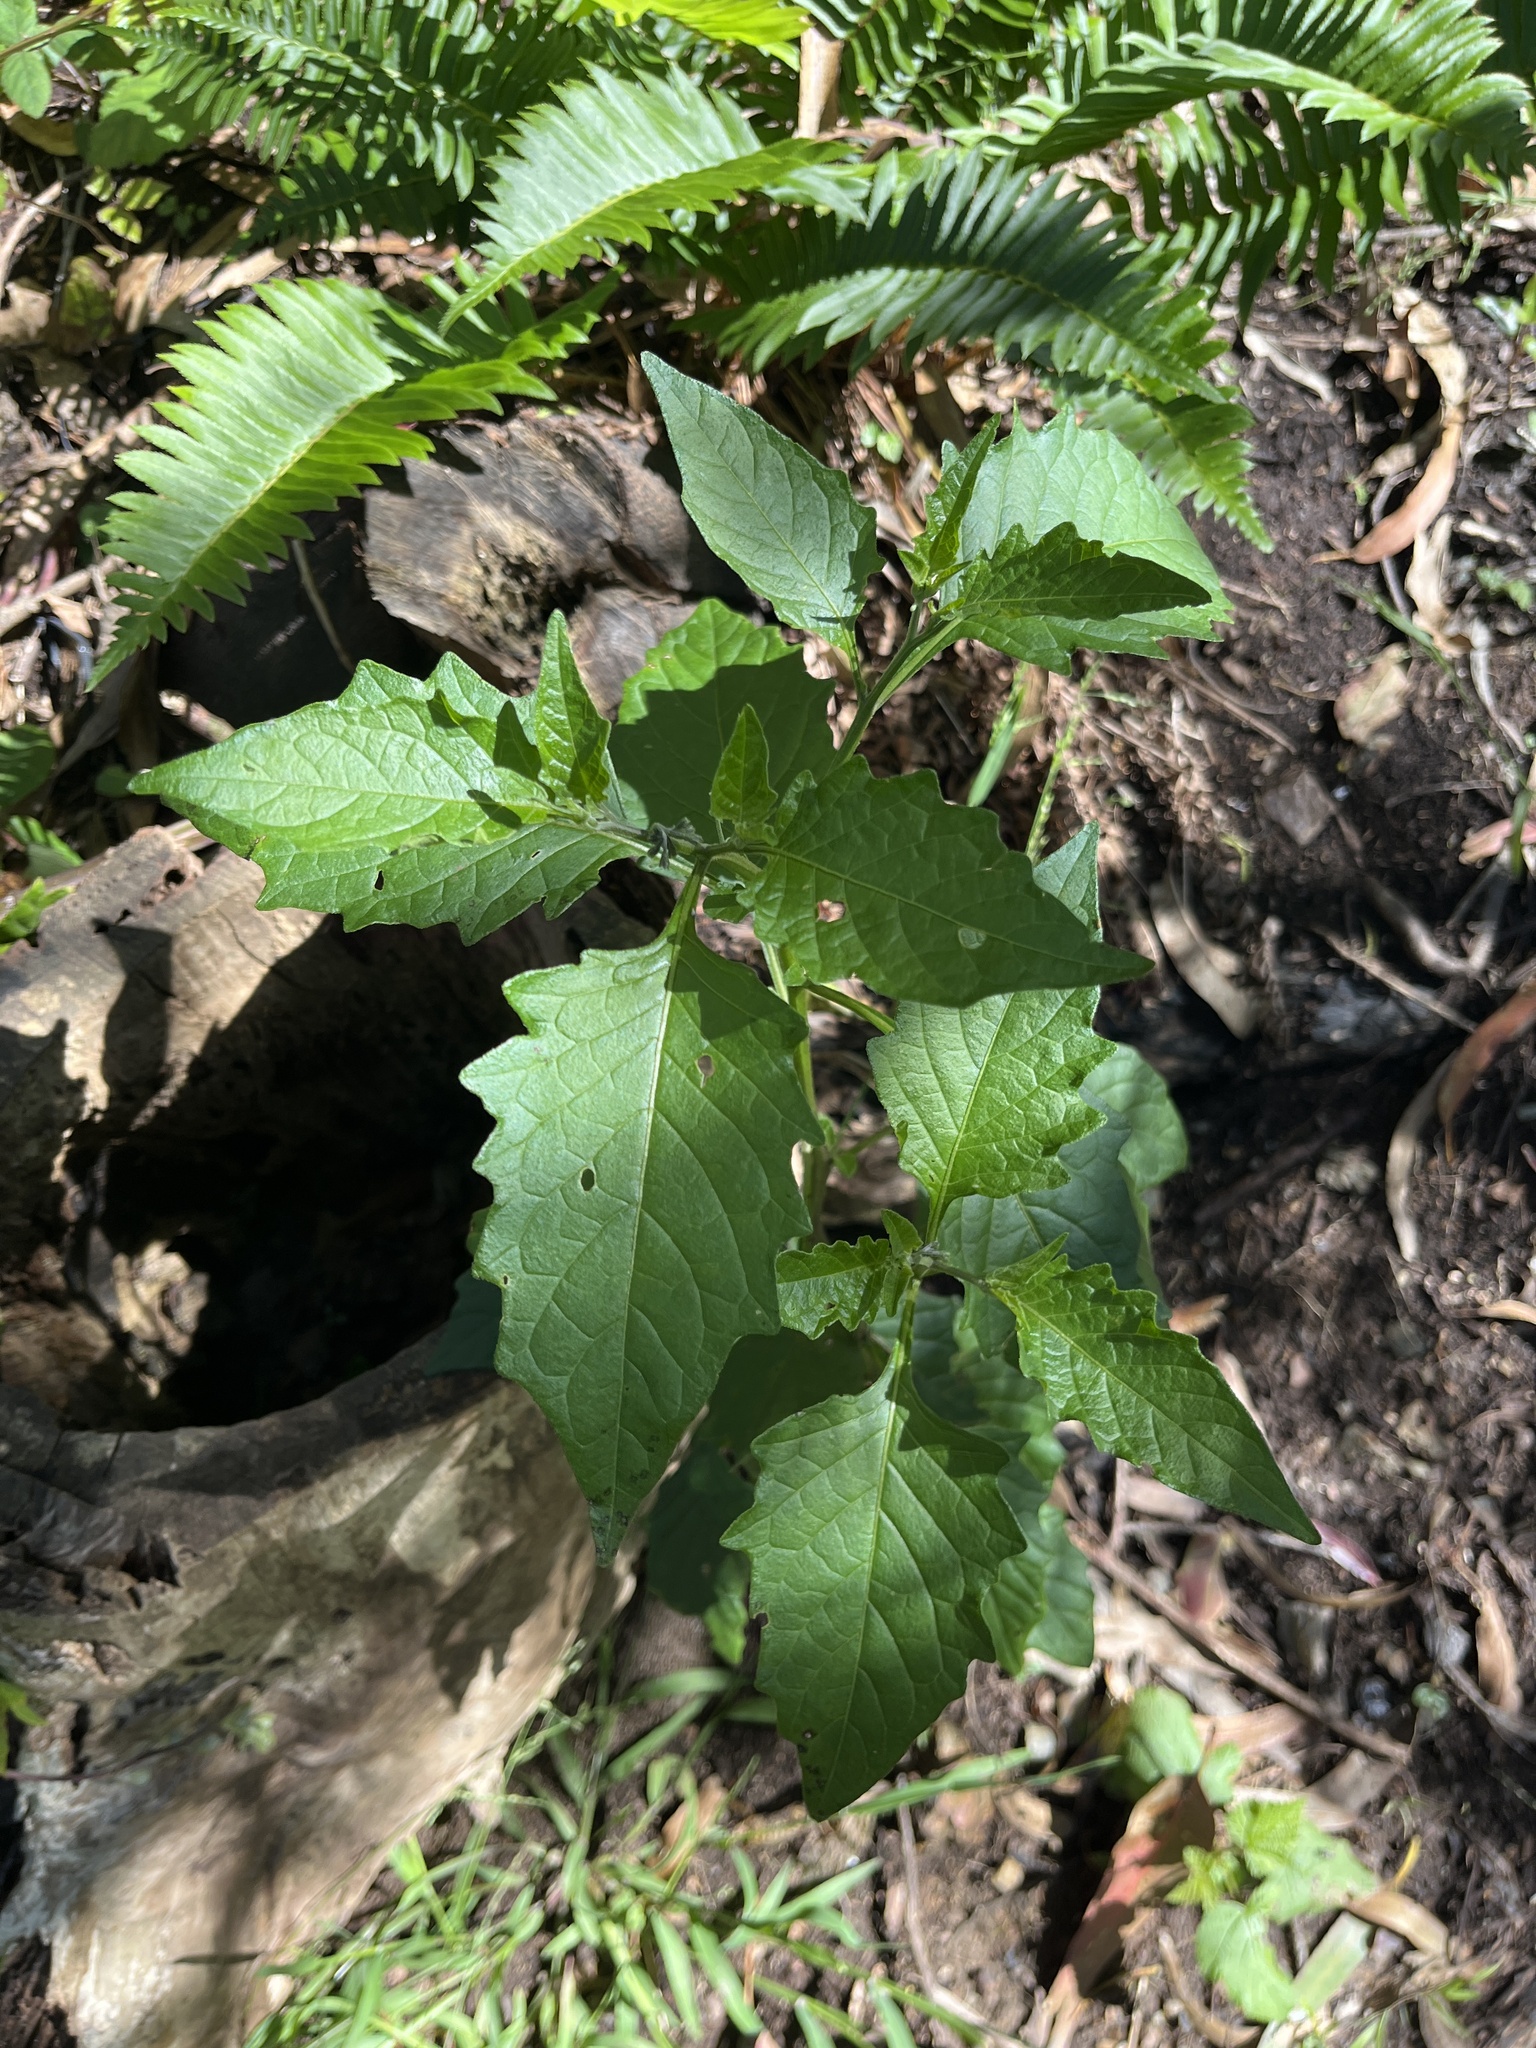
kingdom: Plantae
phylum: Tracheophyta
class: Magnoliopsida
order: Solanales
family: Solanaceae
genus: Solanum
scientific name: Solanum furcatum
